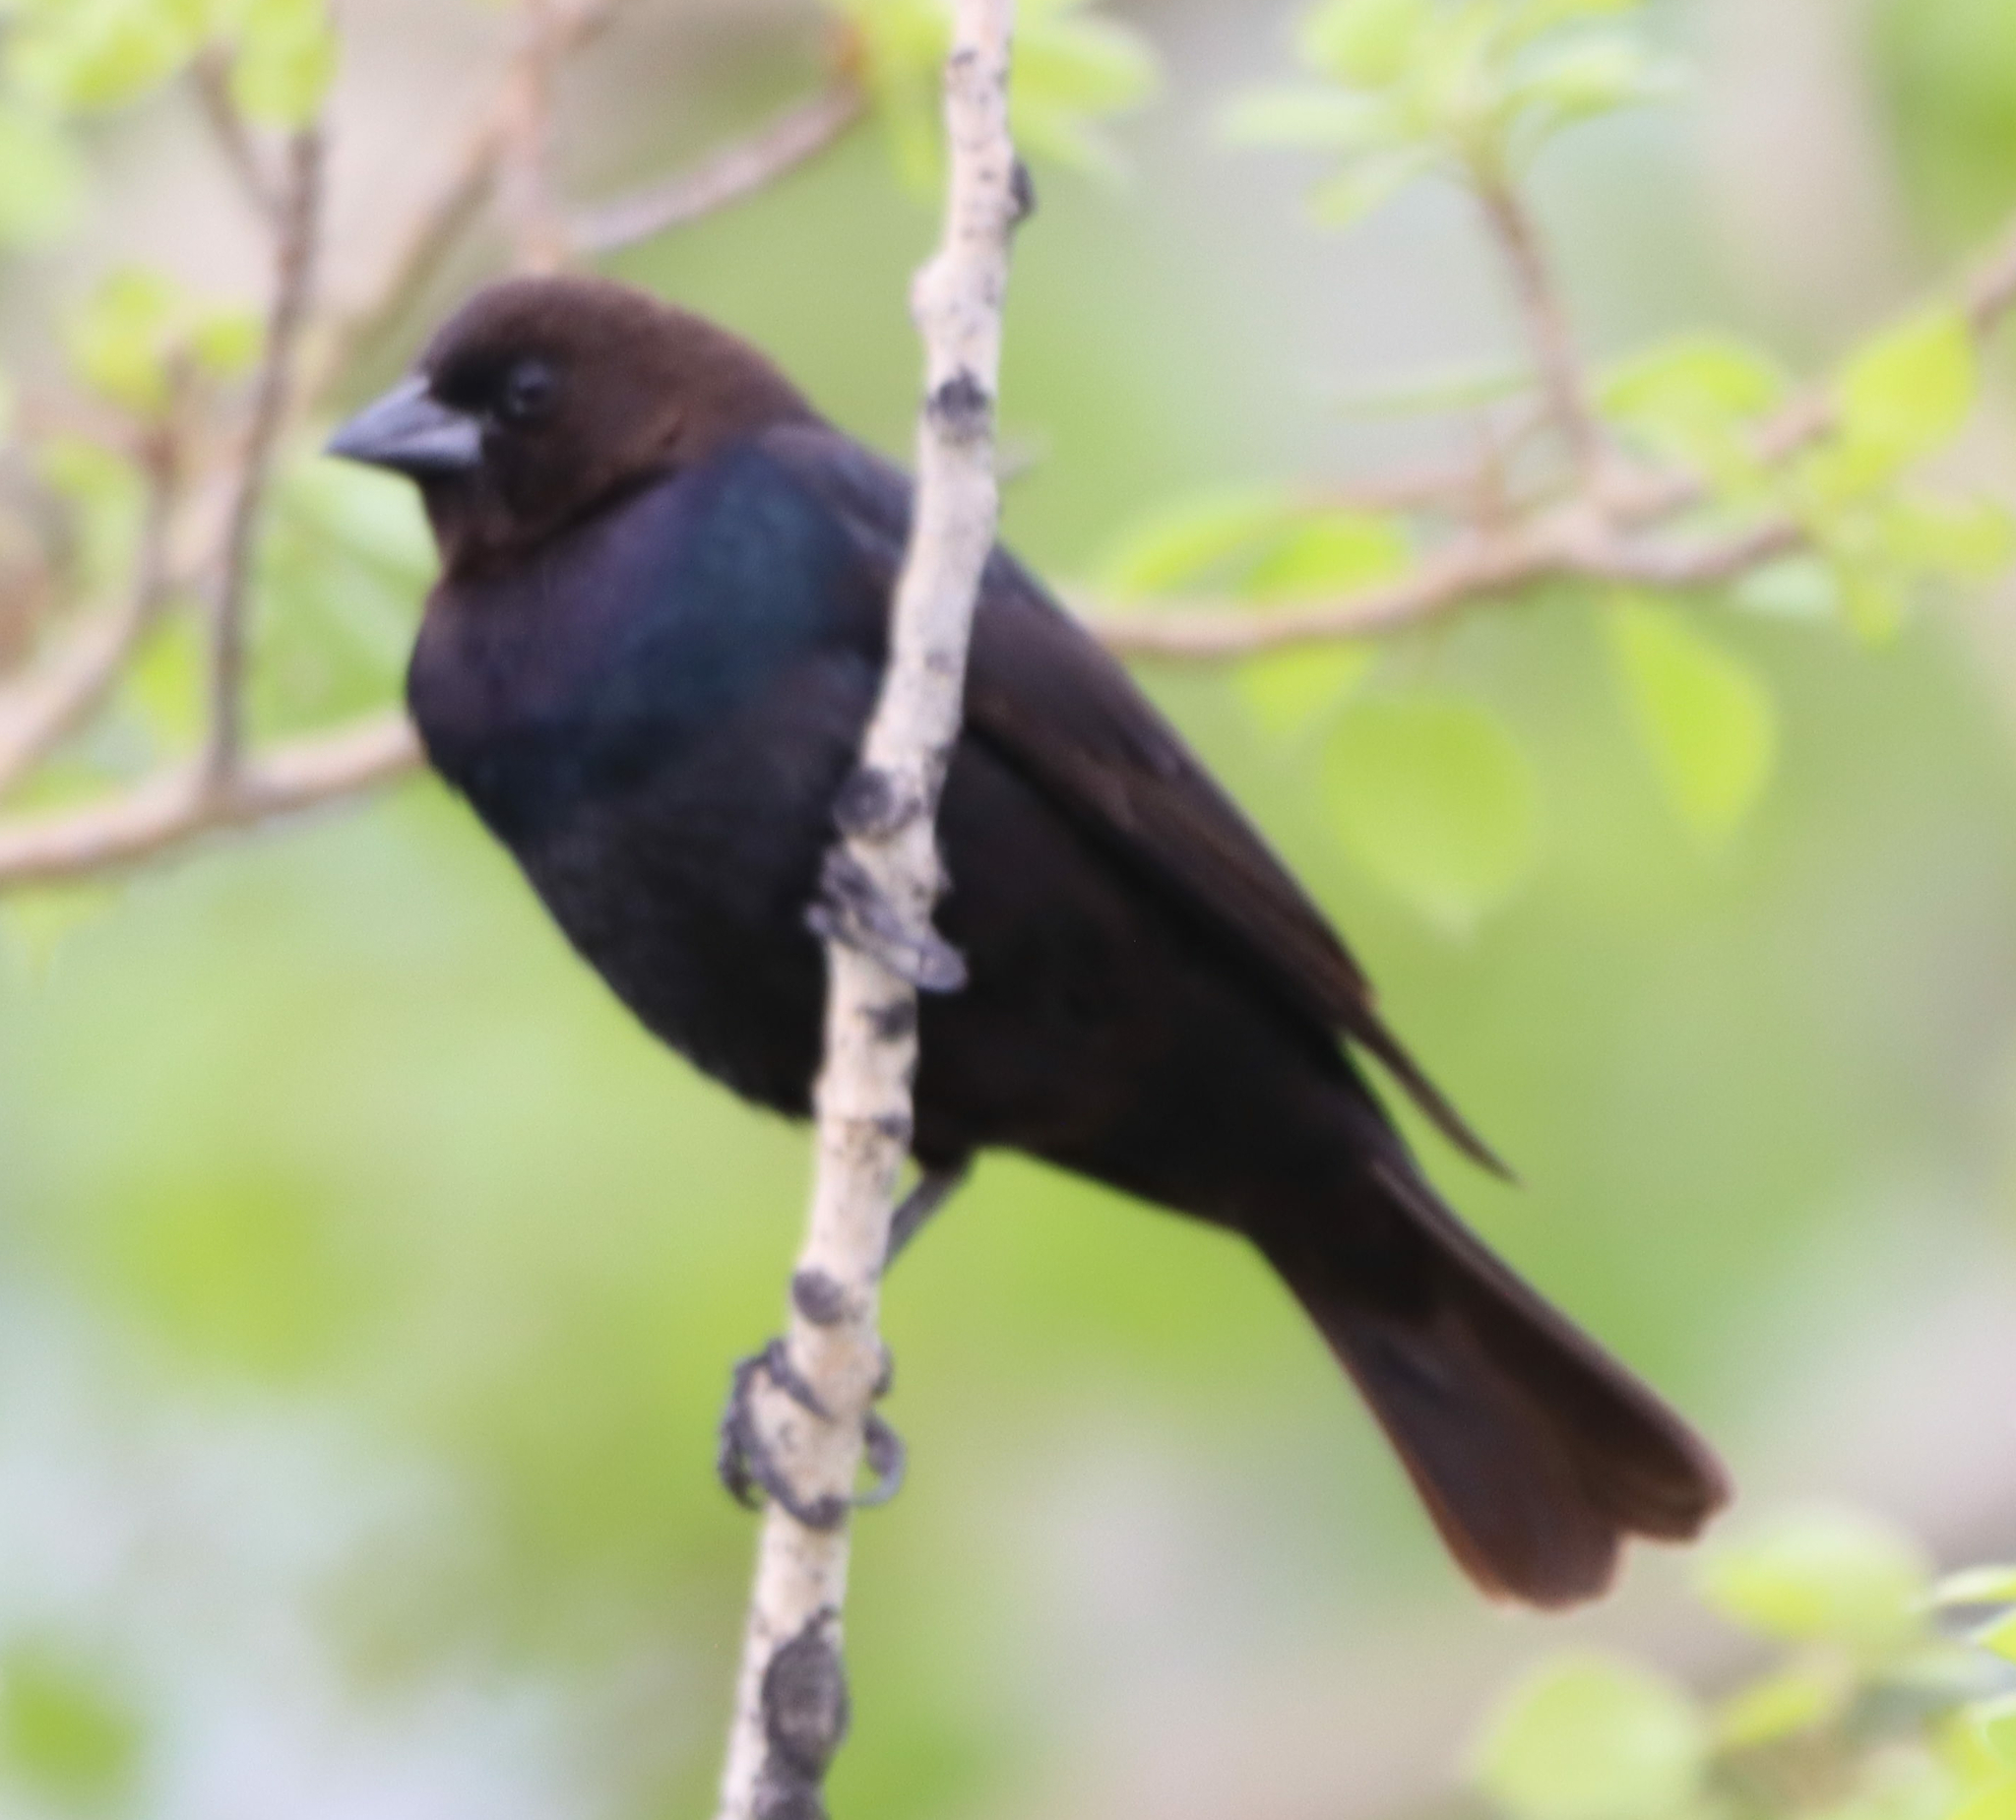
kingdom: Animalia
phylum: Chordata
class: Aves
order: Passeriformes
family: Icteridae
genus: Molothrus
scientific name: Molothrus ater
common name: Brown-headed cowbird
